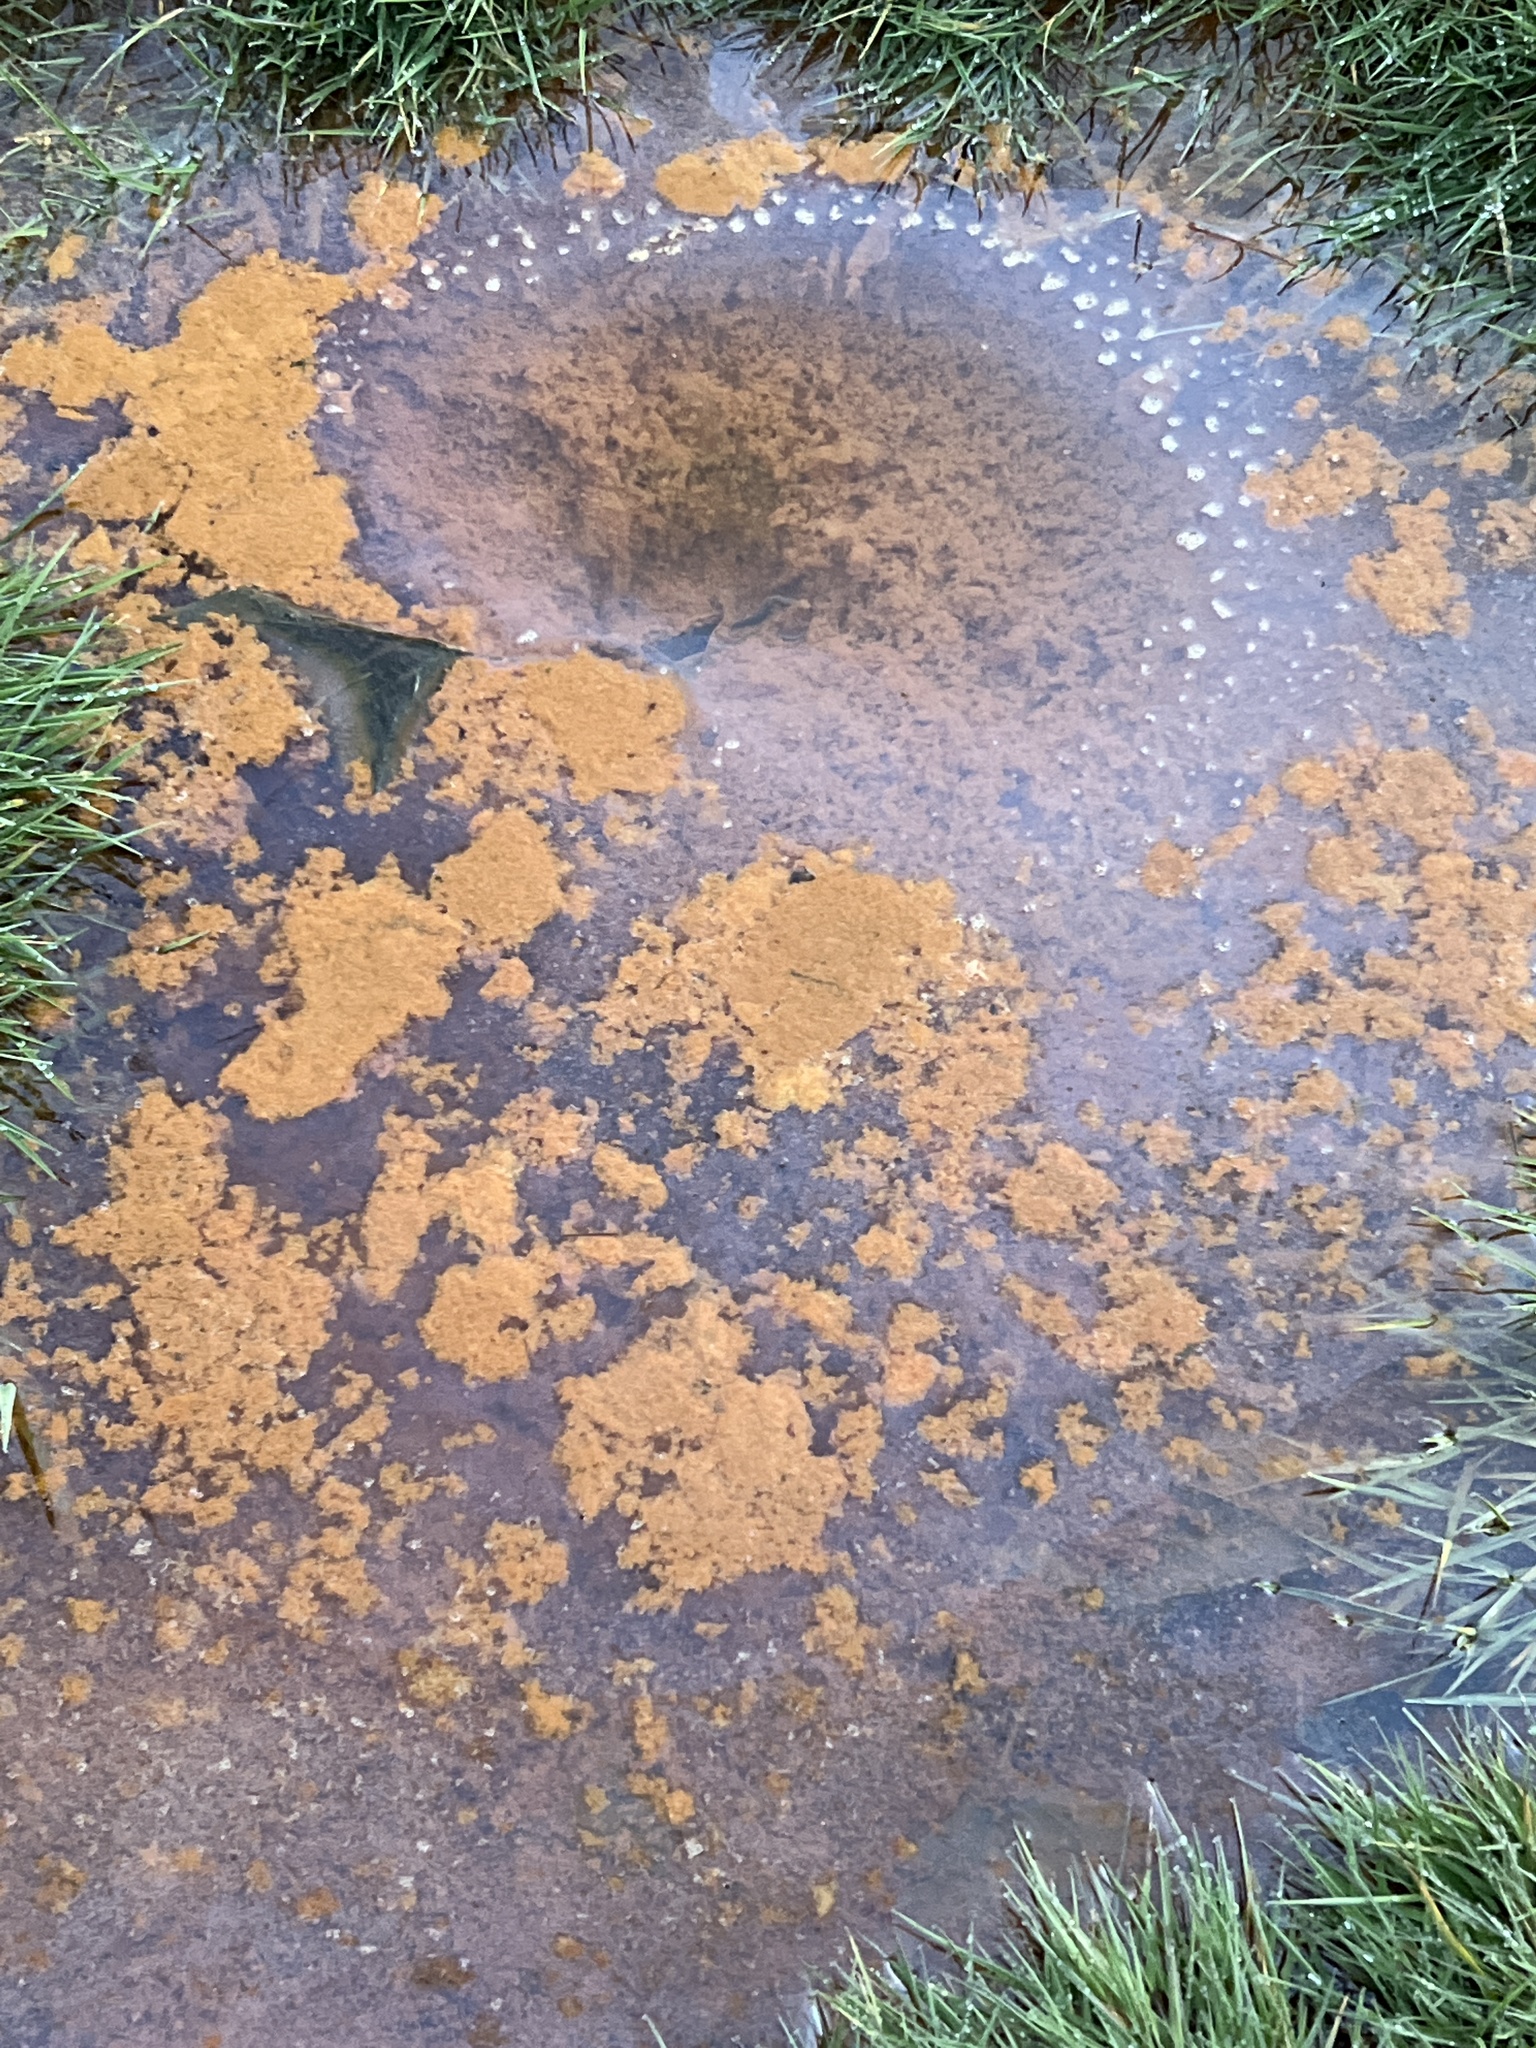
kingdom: Bacteria
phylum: Proteobacteria
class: Gammaproteobacteria
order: Burkholderiales
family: Burkholderiaceae
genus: Leptothrix
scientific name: Leptothrix
